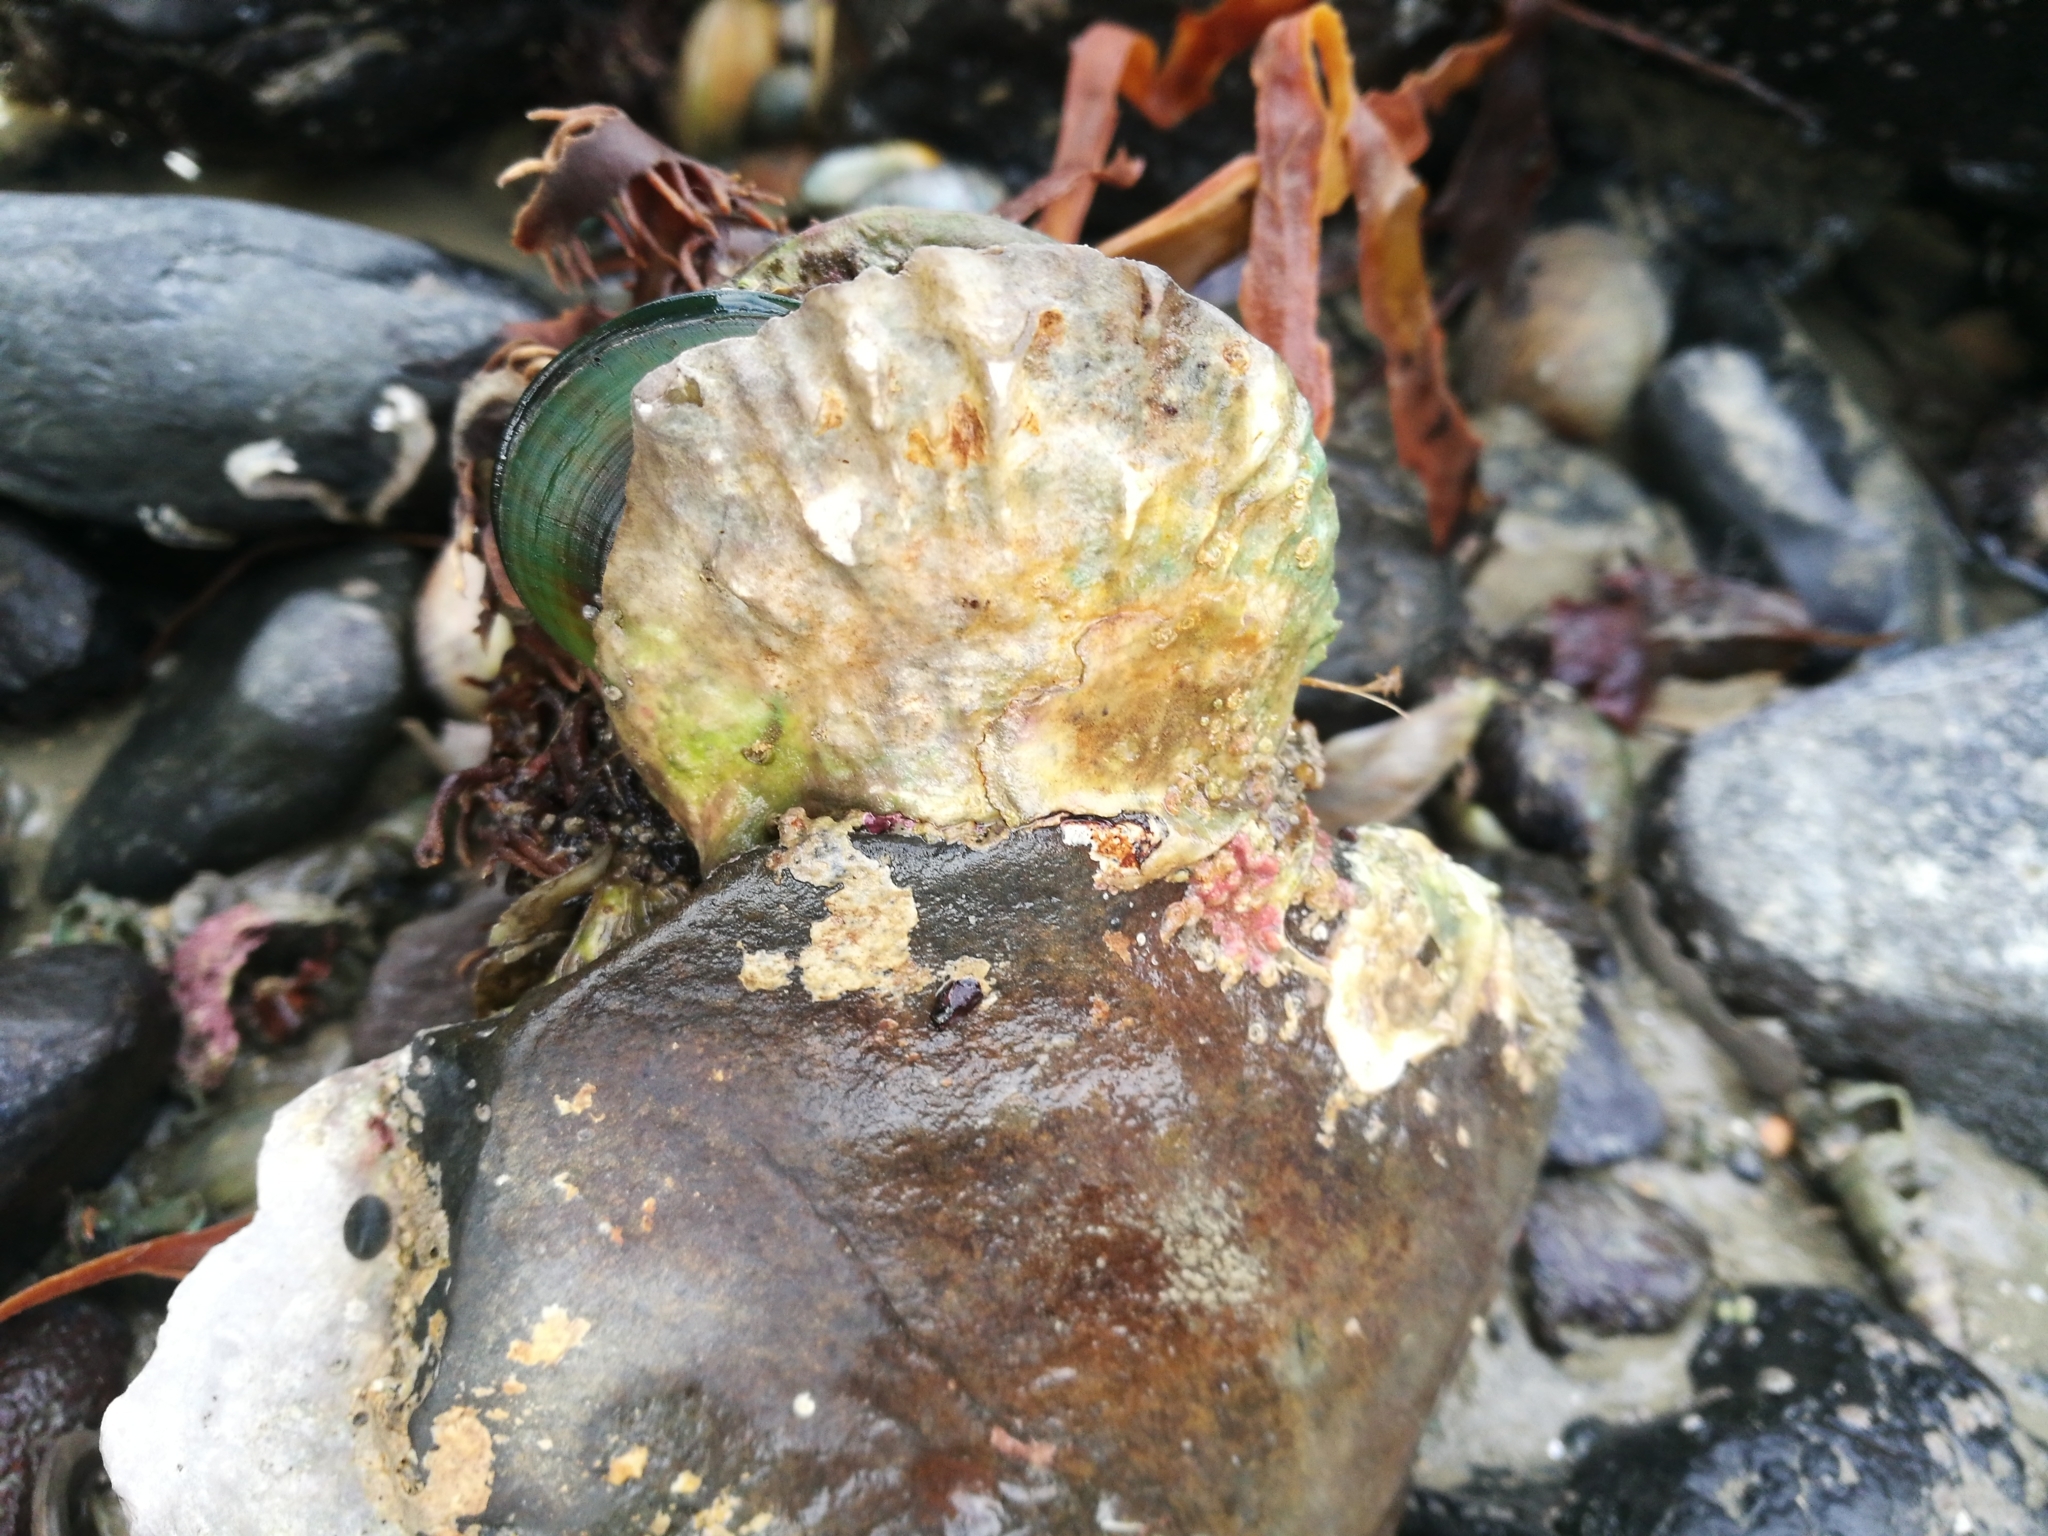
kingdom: Animalia
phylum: Mollusca
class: Bivalvia
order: Ostreida
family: Ostreidae
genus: Ostrea
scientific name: Ostrea chilensis
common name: Chilean oyster
